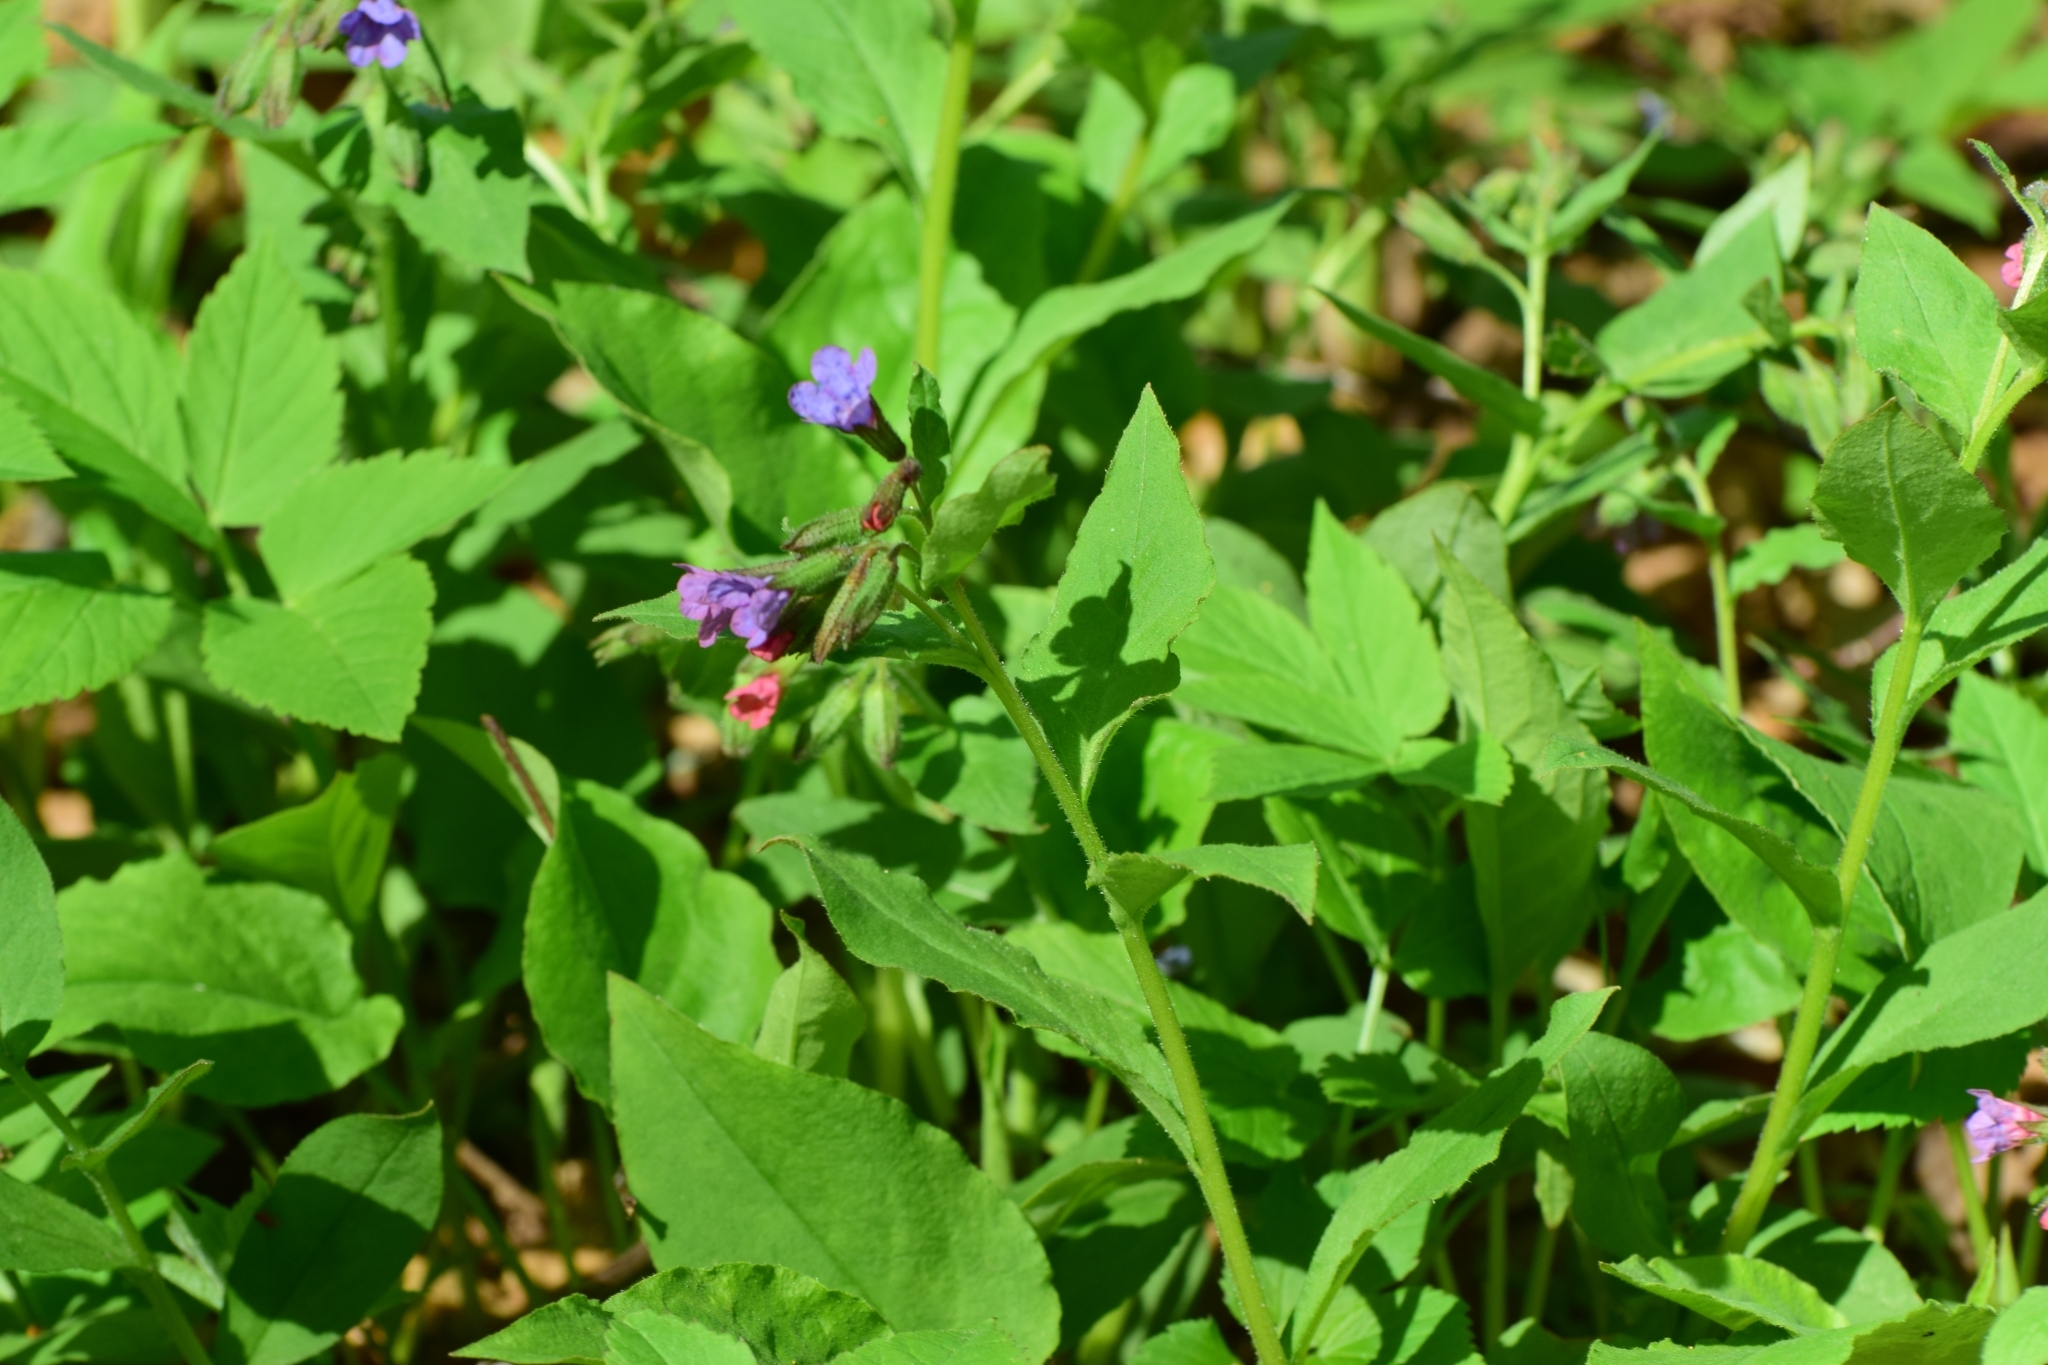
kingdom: Plantae
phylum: Tracheophyta
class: Magnoliopsida
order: Boraginales
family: Boraginaceae
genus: Pulmonaria
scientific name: Pulmonaria obscura
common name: Suffolk lungwort
